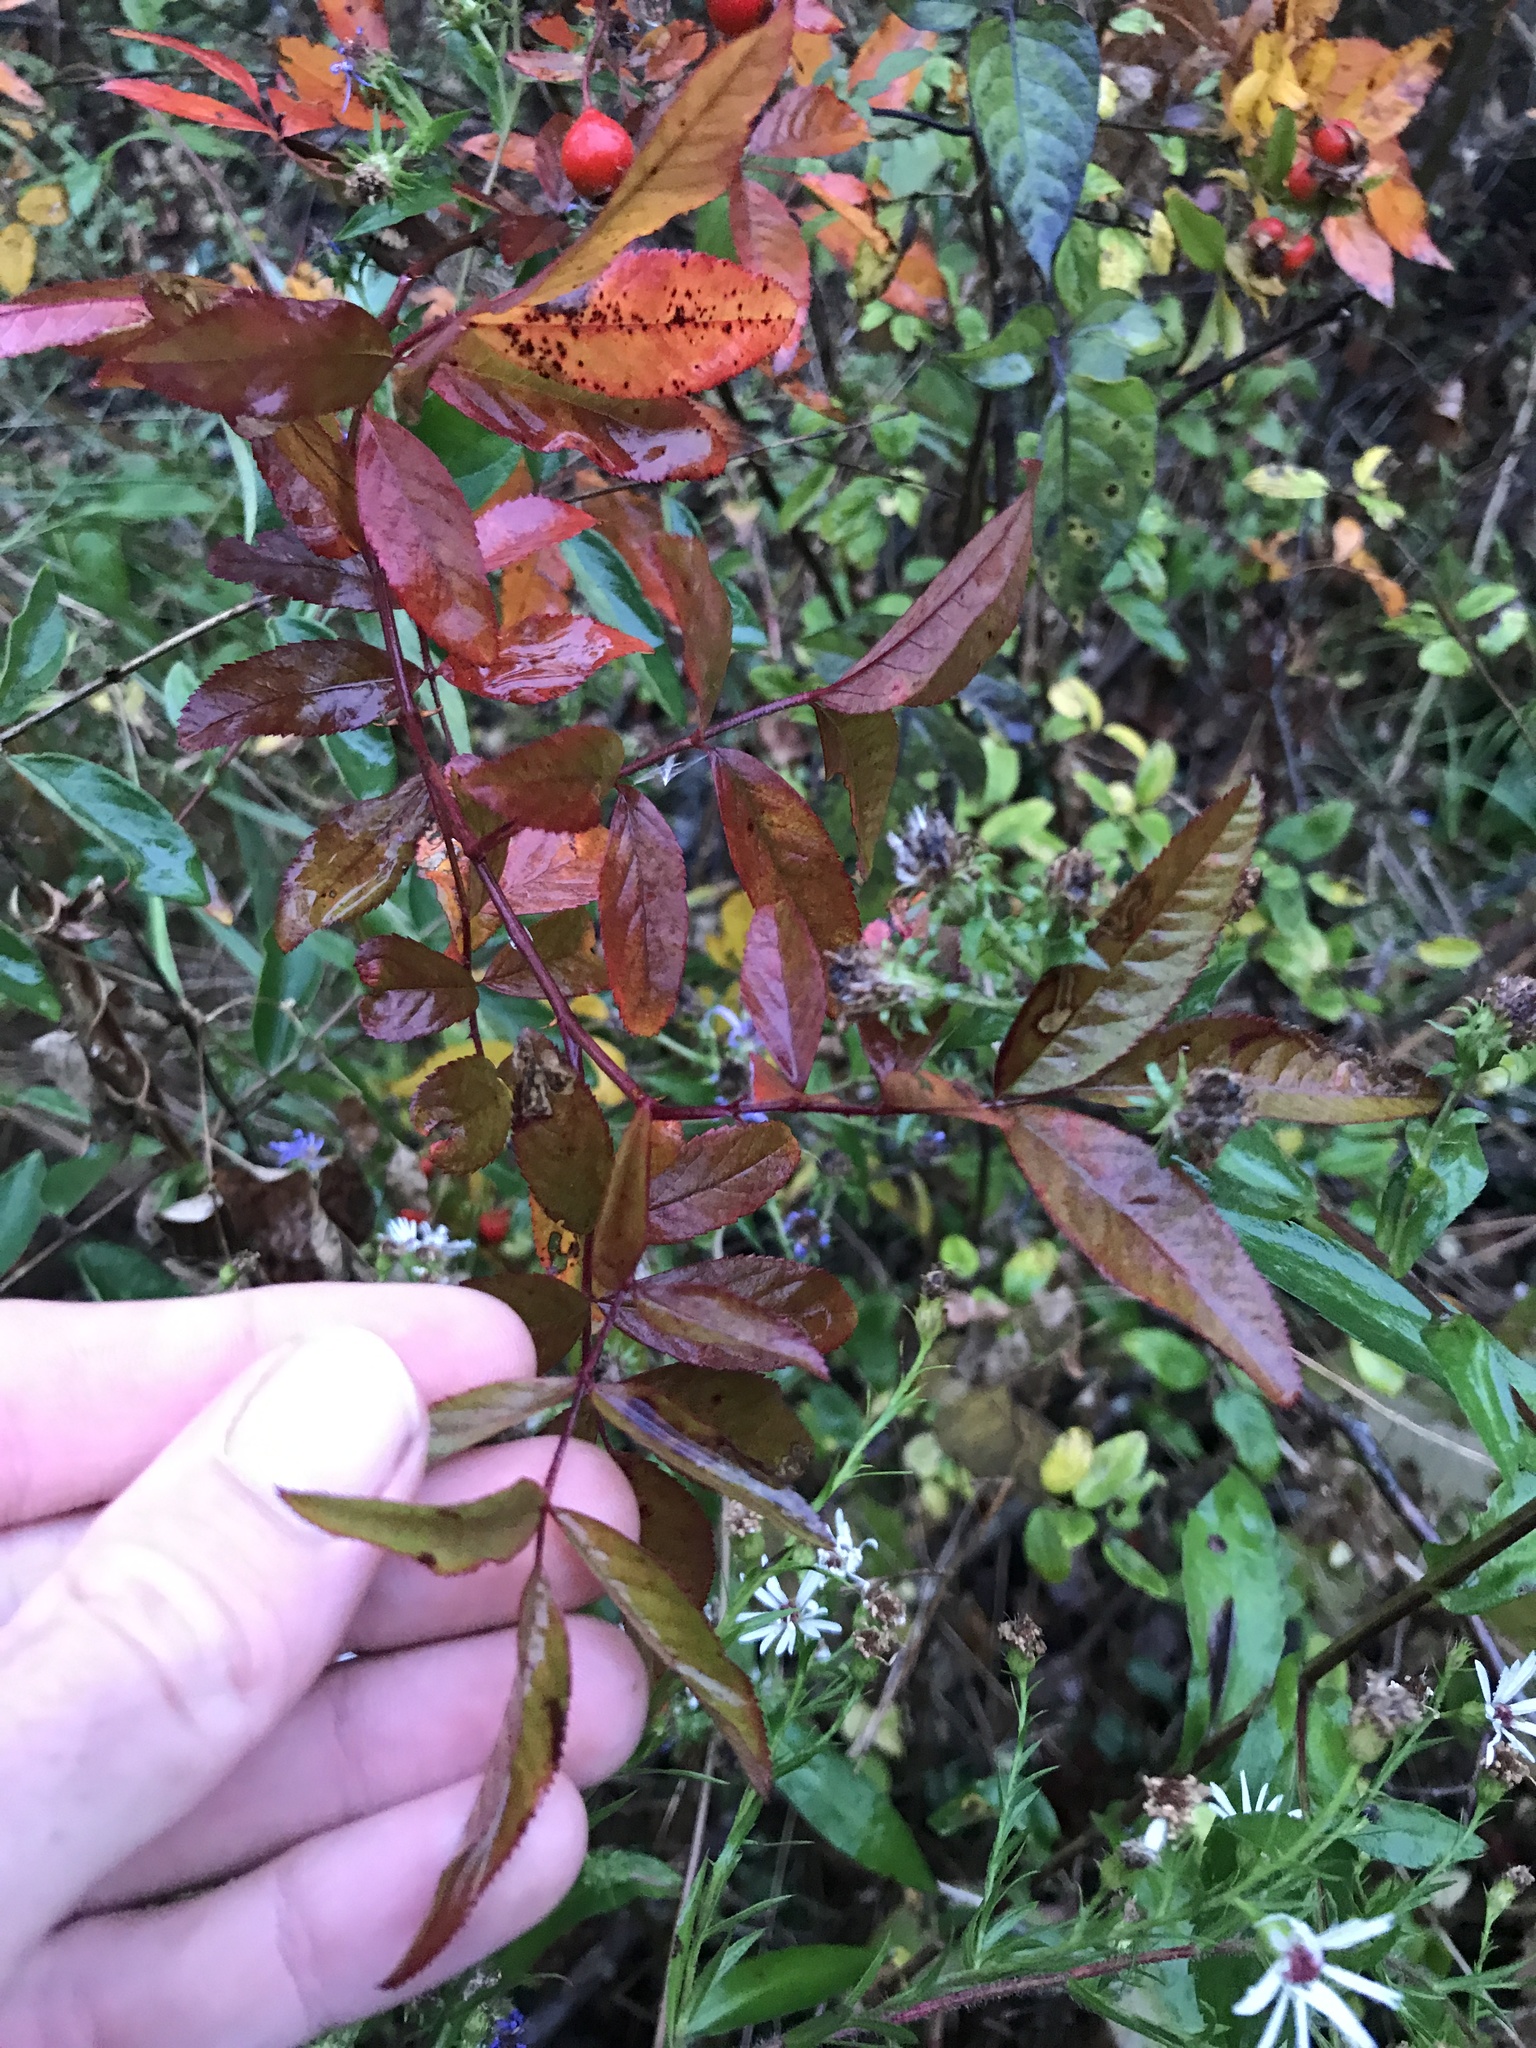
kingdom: Plantae
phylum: Tracheophyta
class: Magnoliopsida
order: Rosales
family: Rosaceae
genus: Rosa
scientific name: Rosa palustris
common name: Swamp rose
